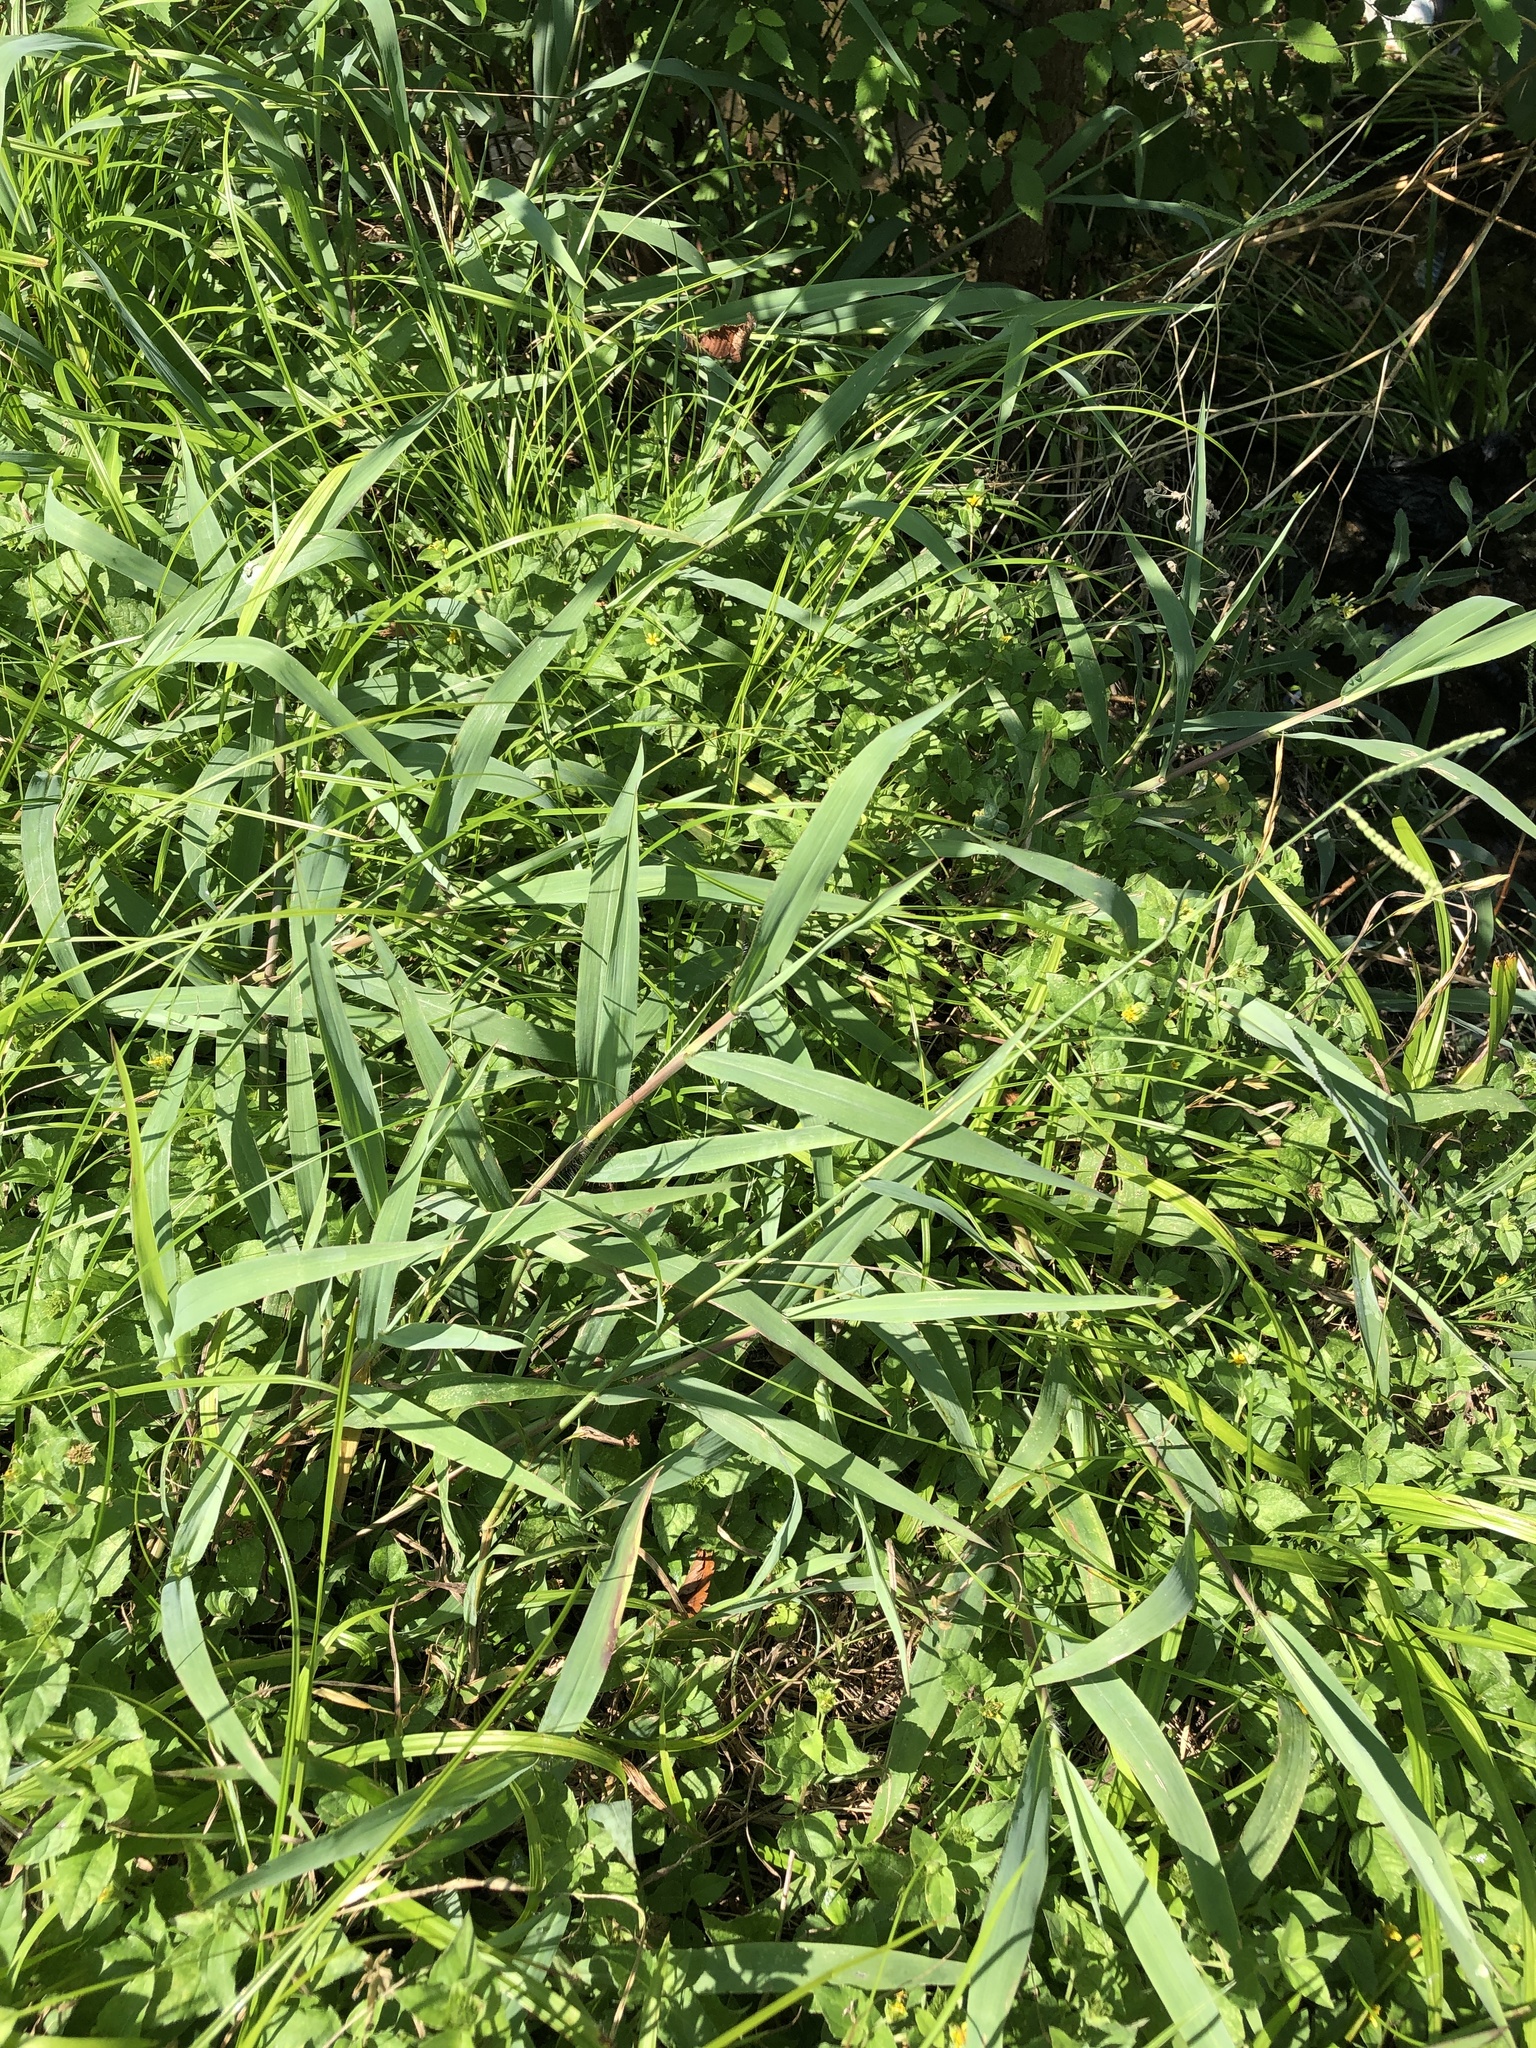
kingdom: Plantae
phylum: Tracheophyta
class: Liliopsida
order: Poales
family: Poaceae
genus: Paspalum
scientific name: Paspalum pubiflorum
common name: Hairy-seed paspalum
